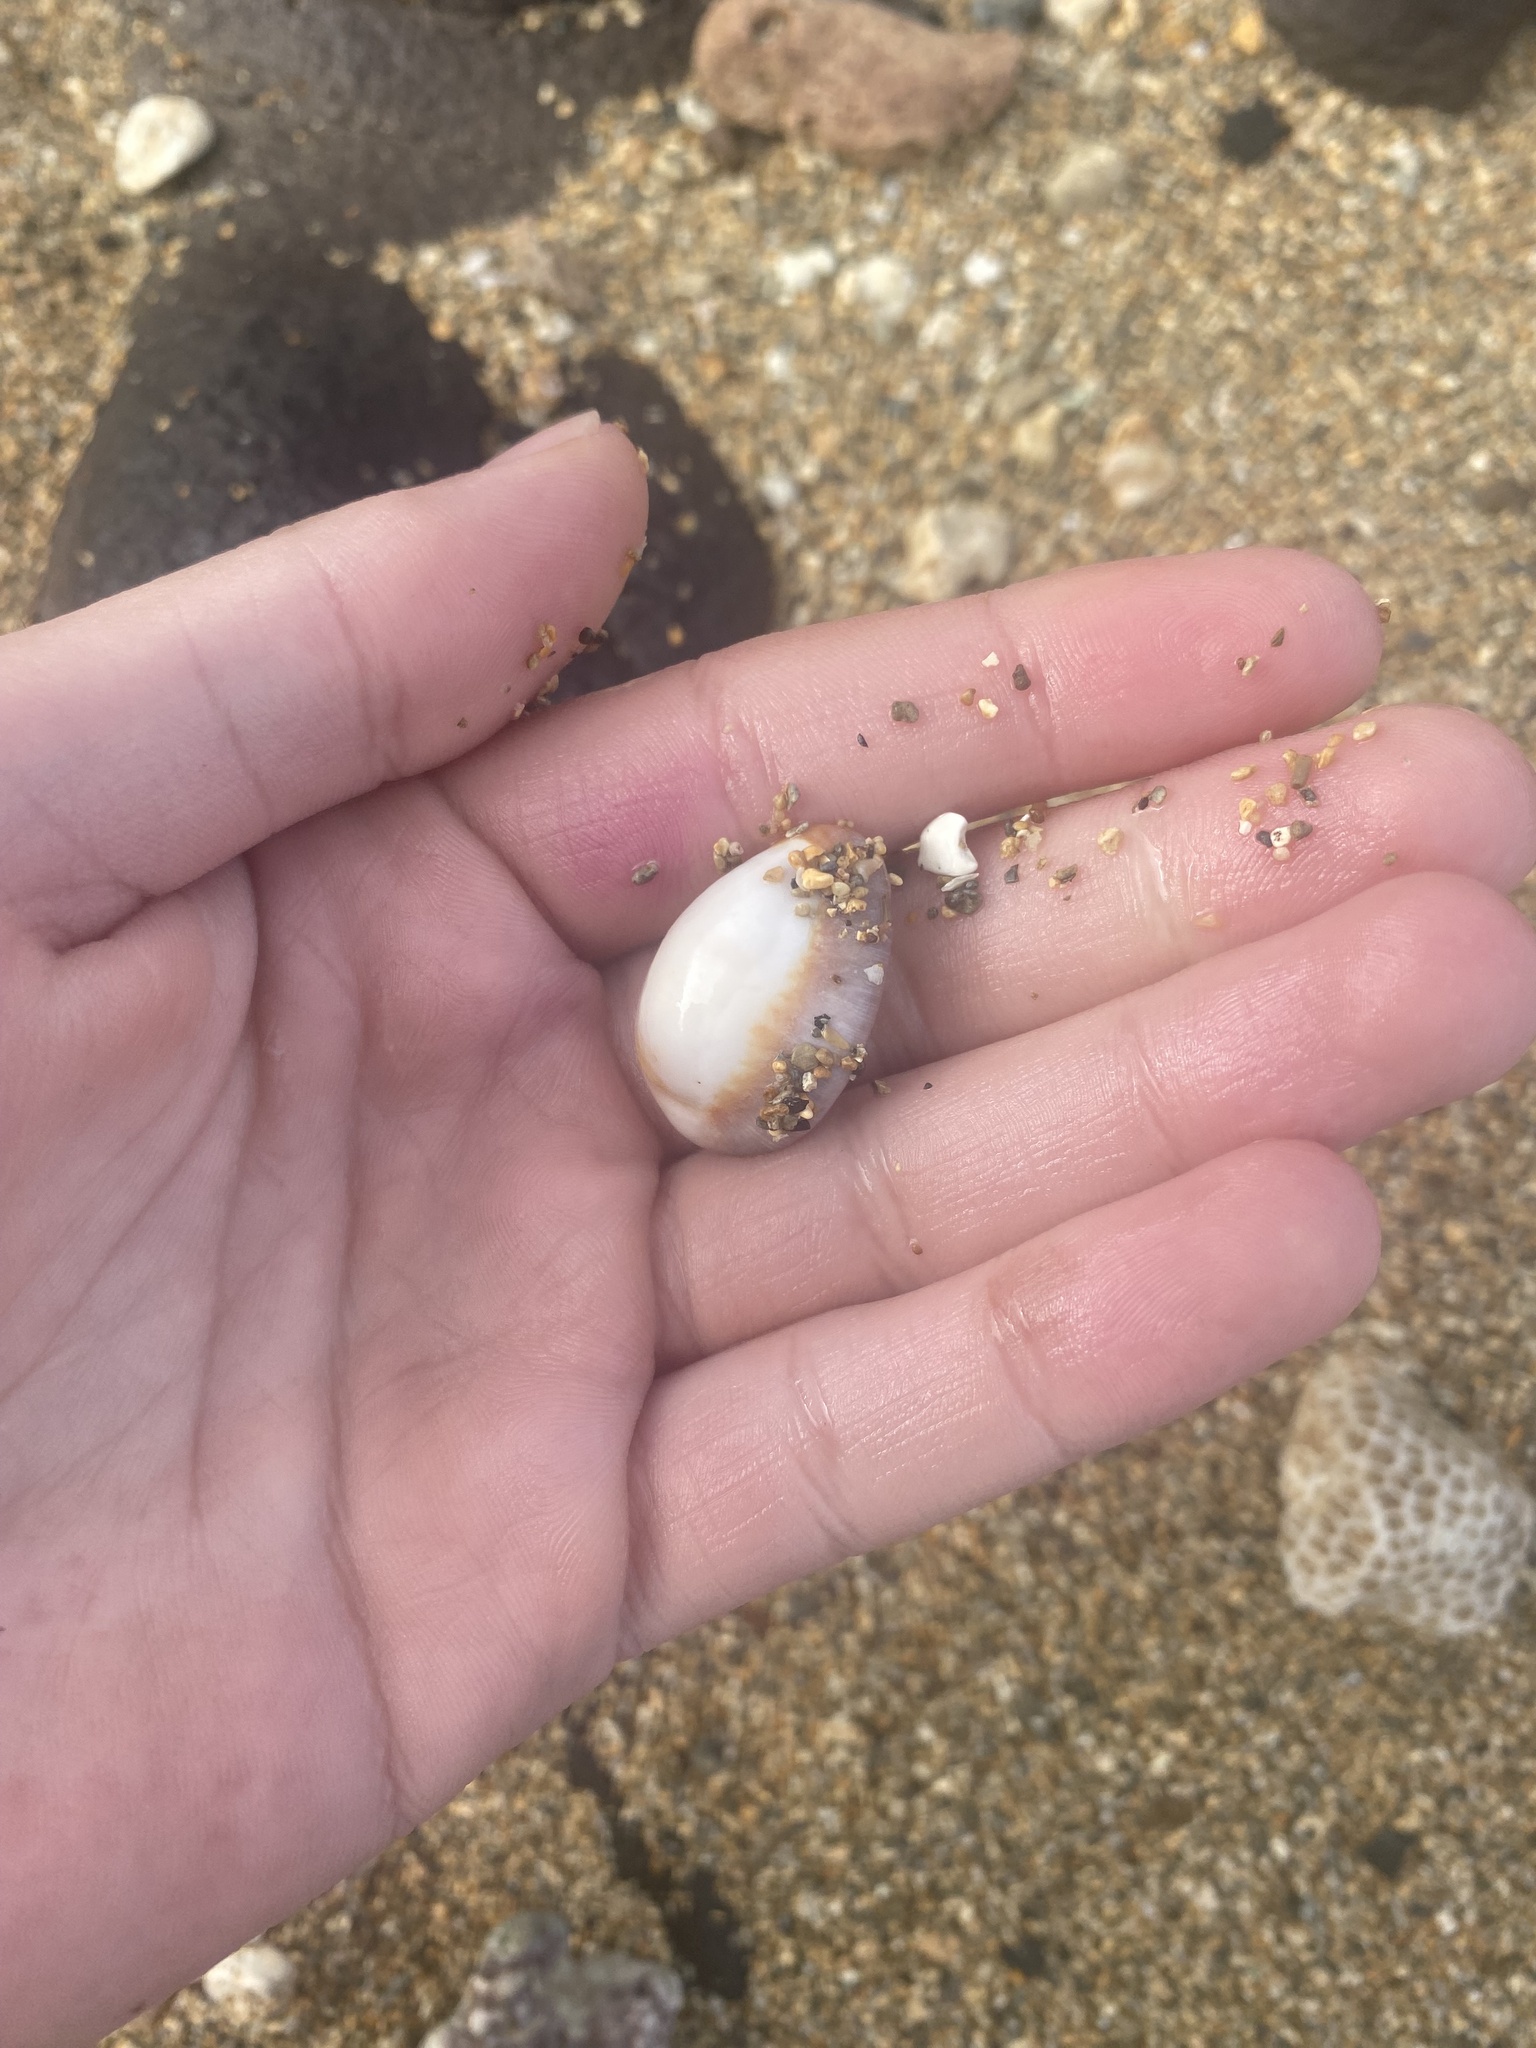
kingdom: Animalia
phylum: Mollusca
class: Gastropoda
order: Littorinimorpha
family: Cypraeidae
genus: Monetaria
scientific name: Monetaria caputophidii
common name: Snake's head cowry
